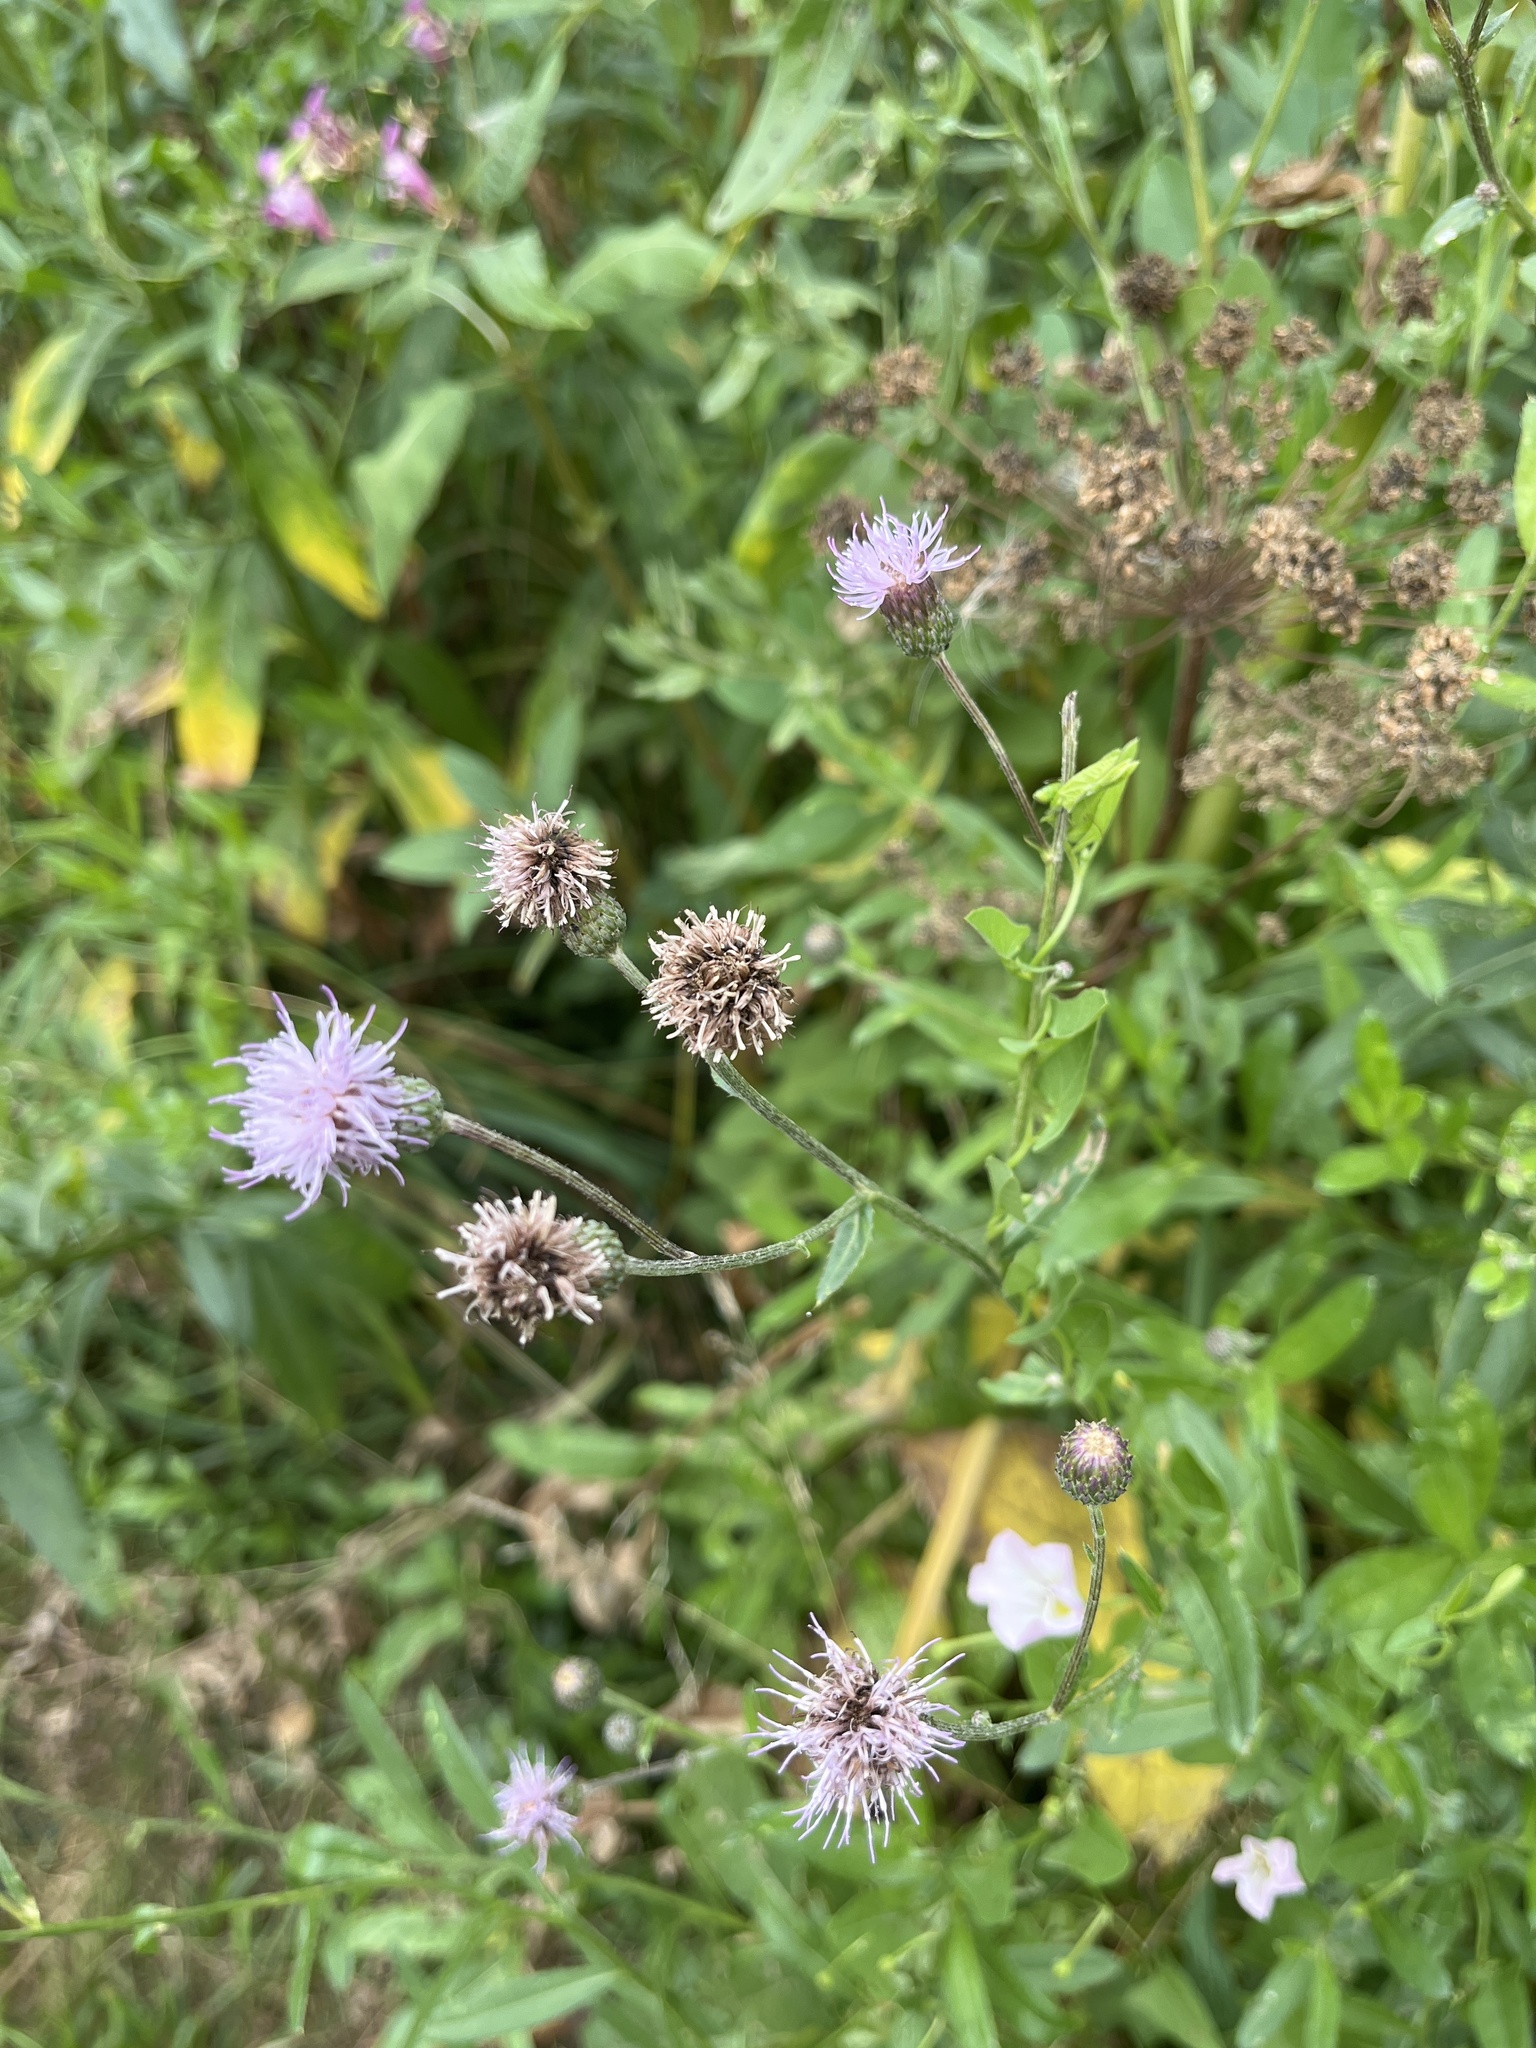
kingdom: Plantae
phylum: Tracheophyta
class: Magnoliopsida
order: Asterales
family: Asteraceae
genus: Cirsium
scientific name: Cirsium arvense
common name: Creeping thistle
